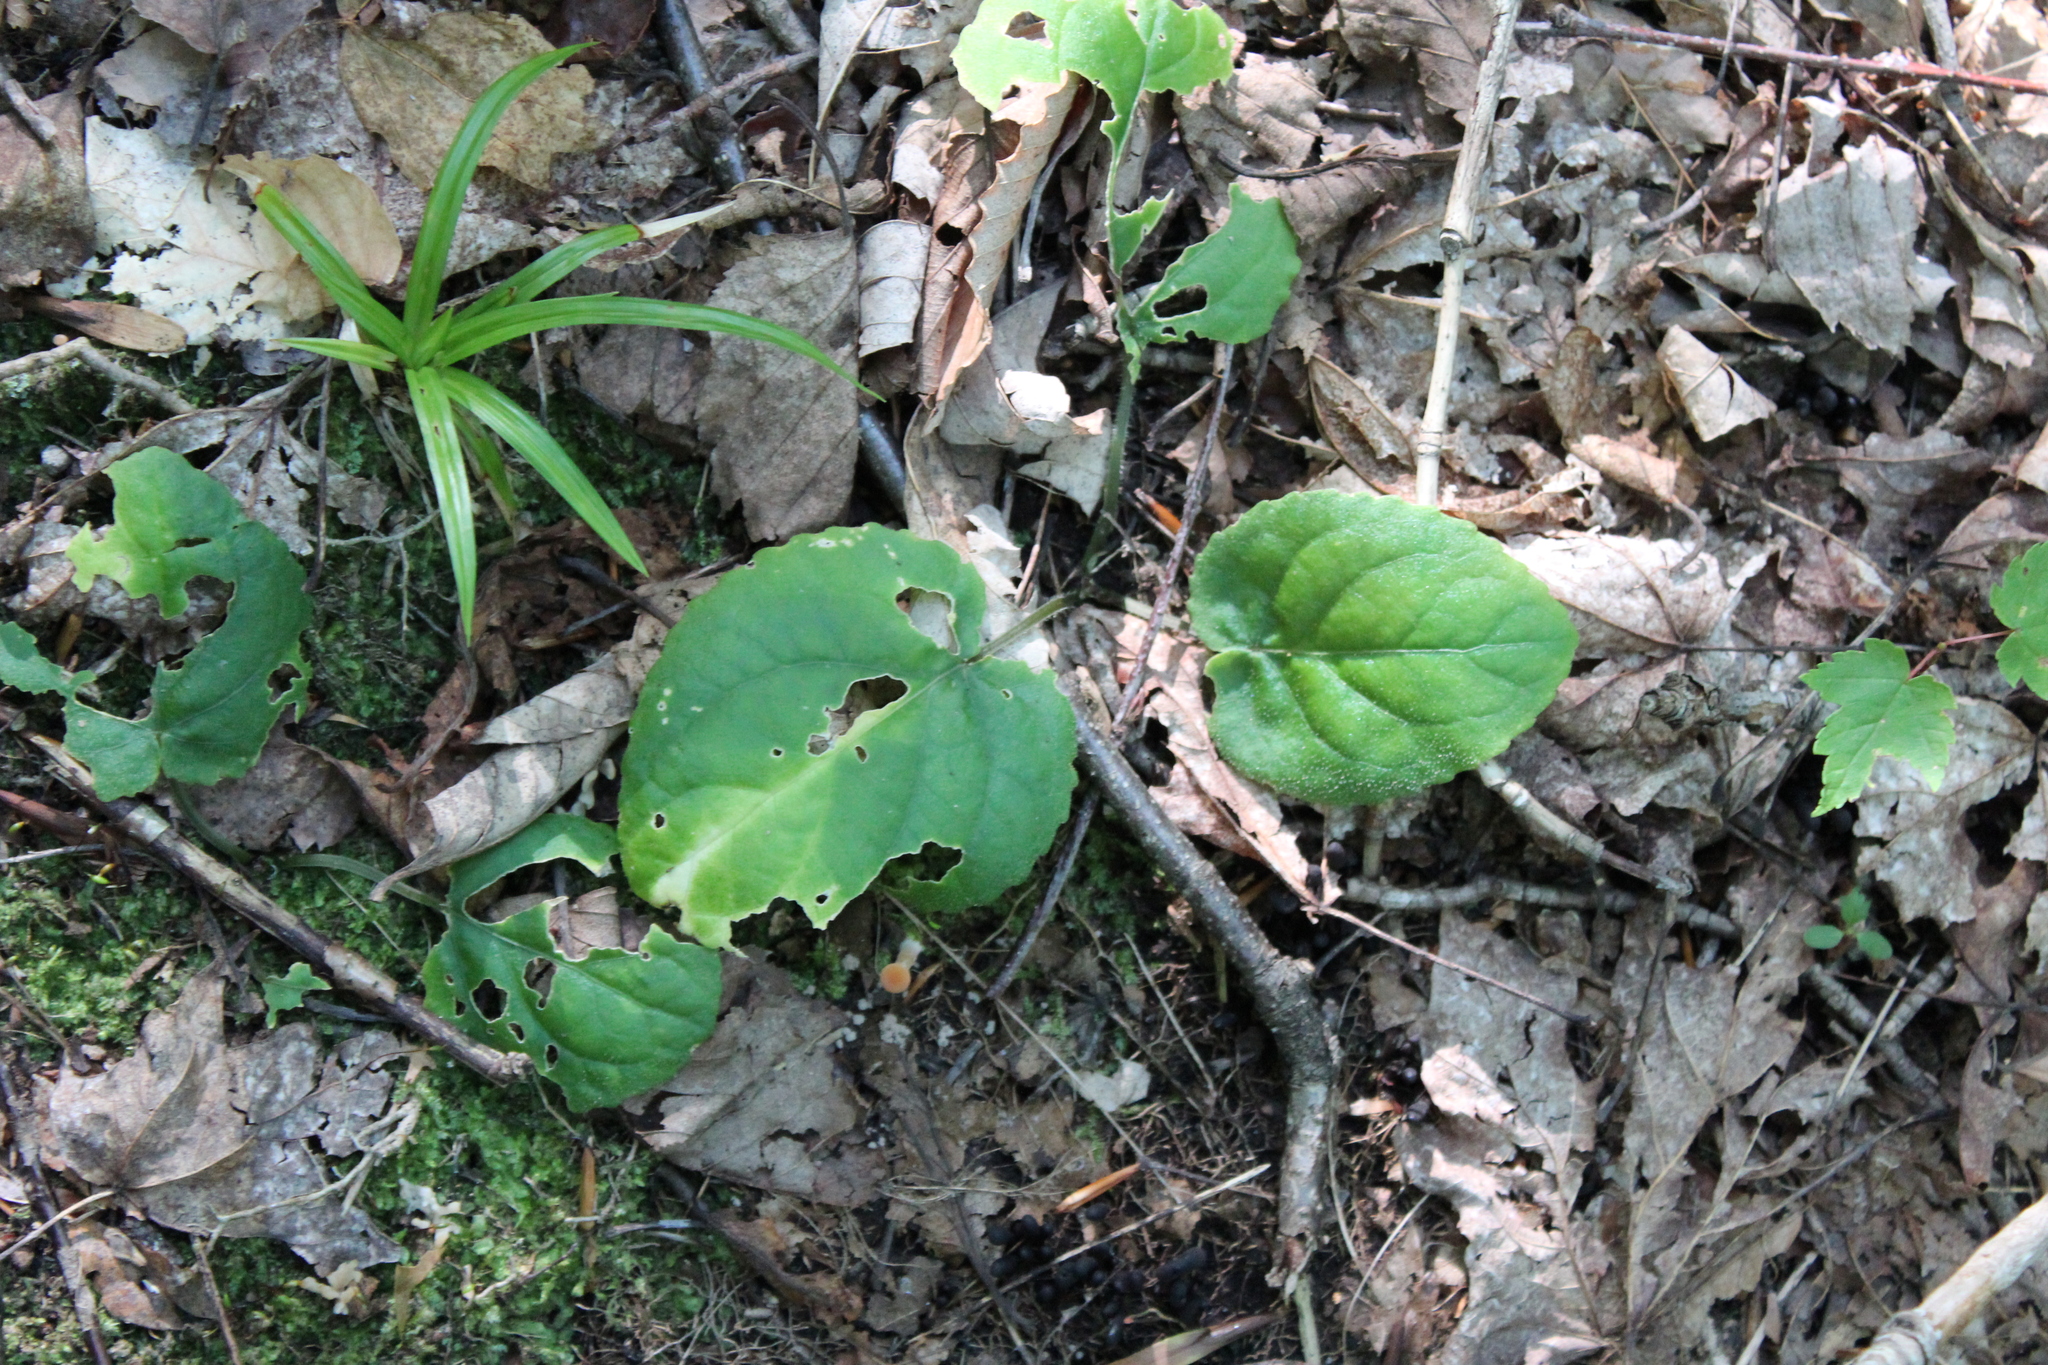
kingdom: Plantae
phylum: Tracheophyta
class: Magnoliopsida
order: Malpighiales
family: Violaceae
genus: Viola
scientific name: Viola rotundifolia
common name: Early yellow violet
